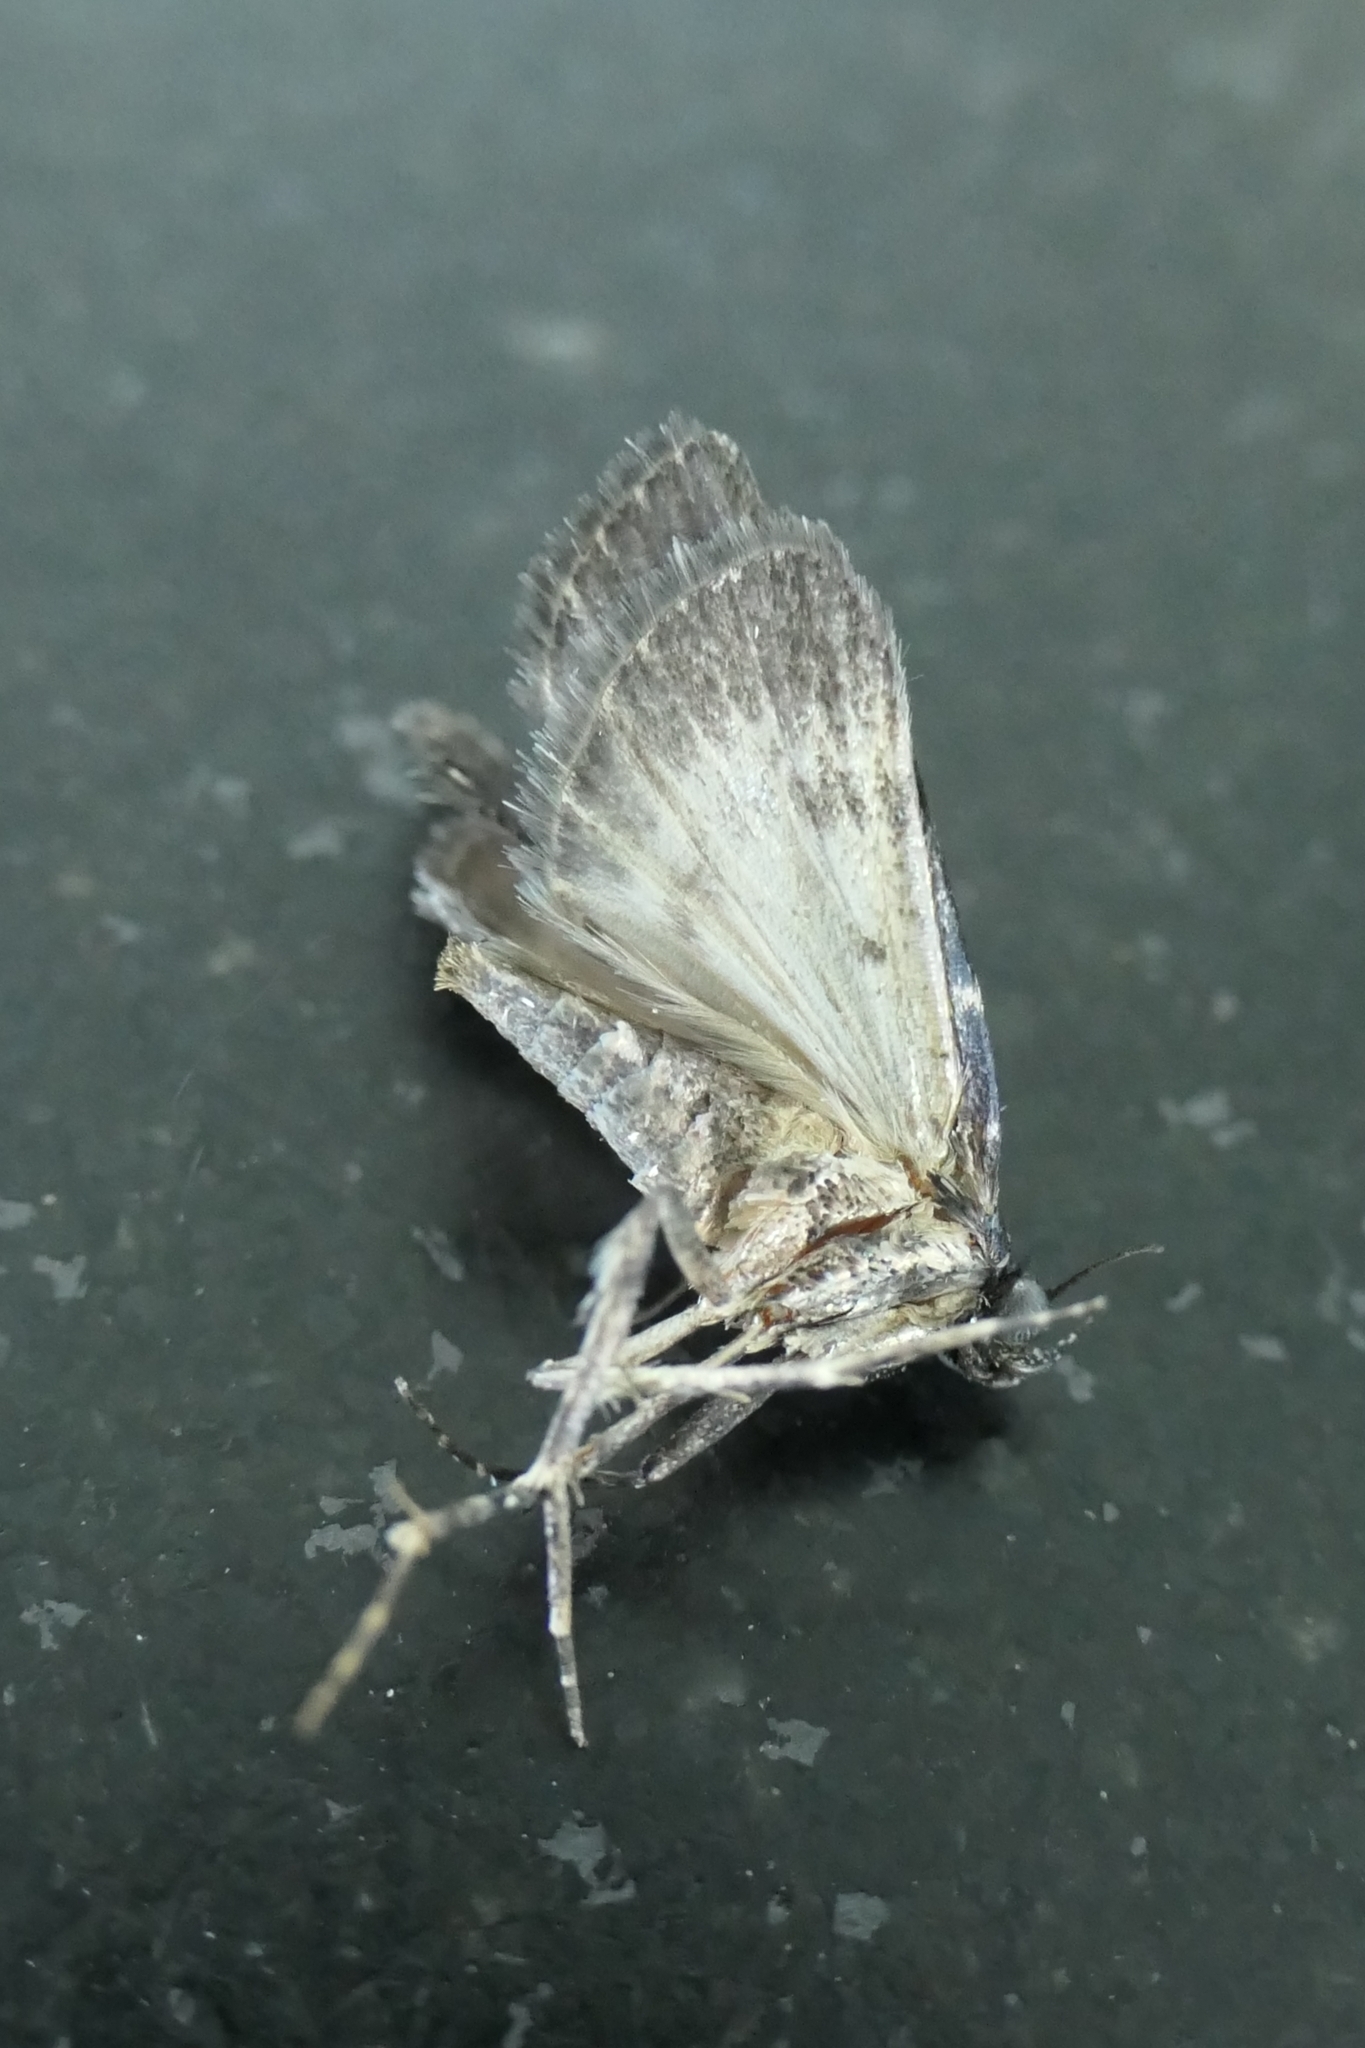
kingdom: Animalia
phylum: Arthropoda
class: Insecta
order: Lepidoptera
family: Pyralidae
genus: Stericta
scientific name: Stericta carbonalis
